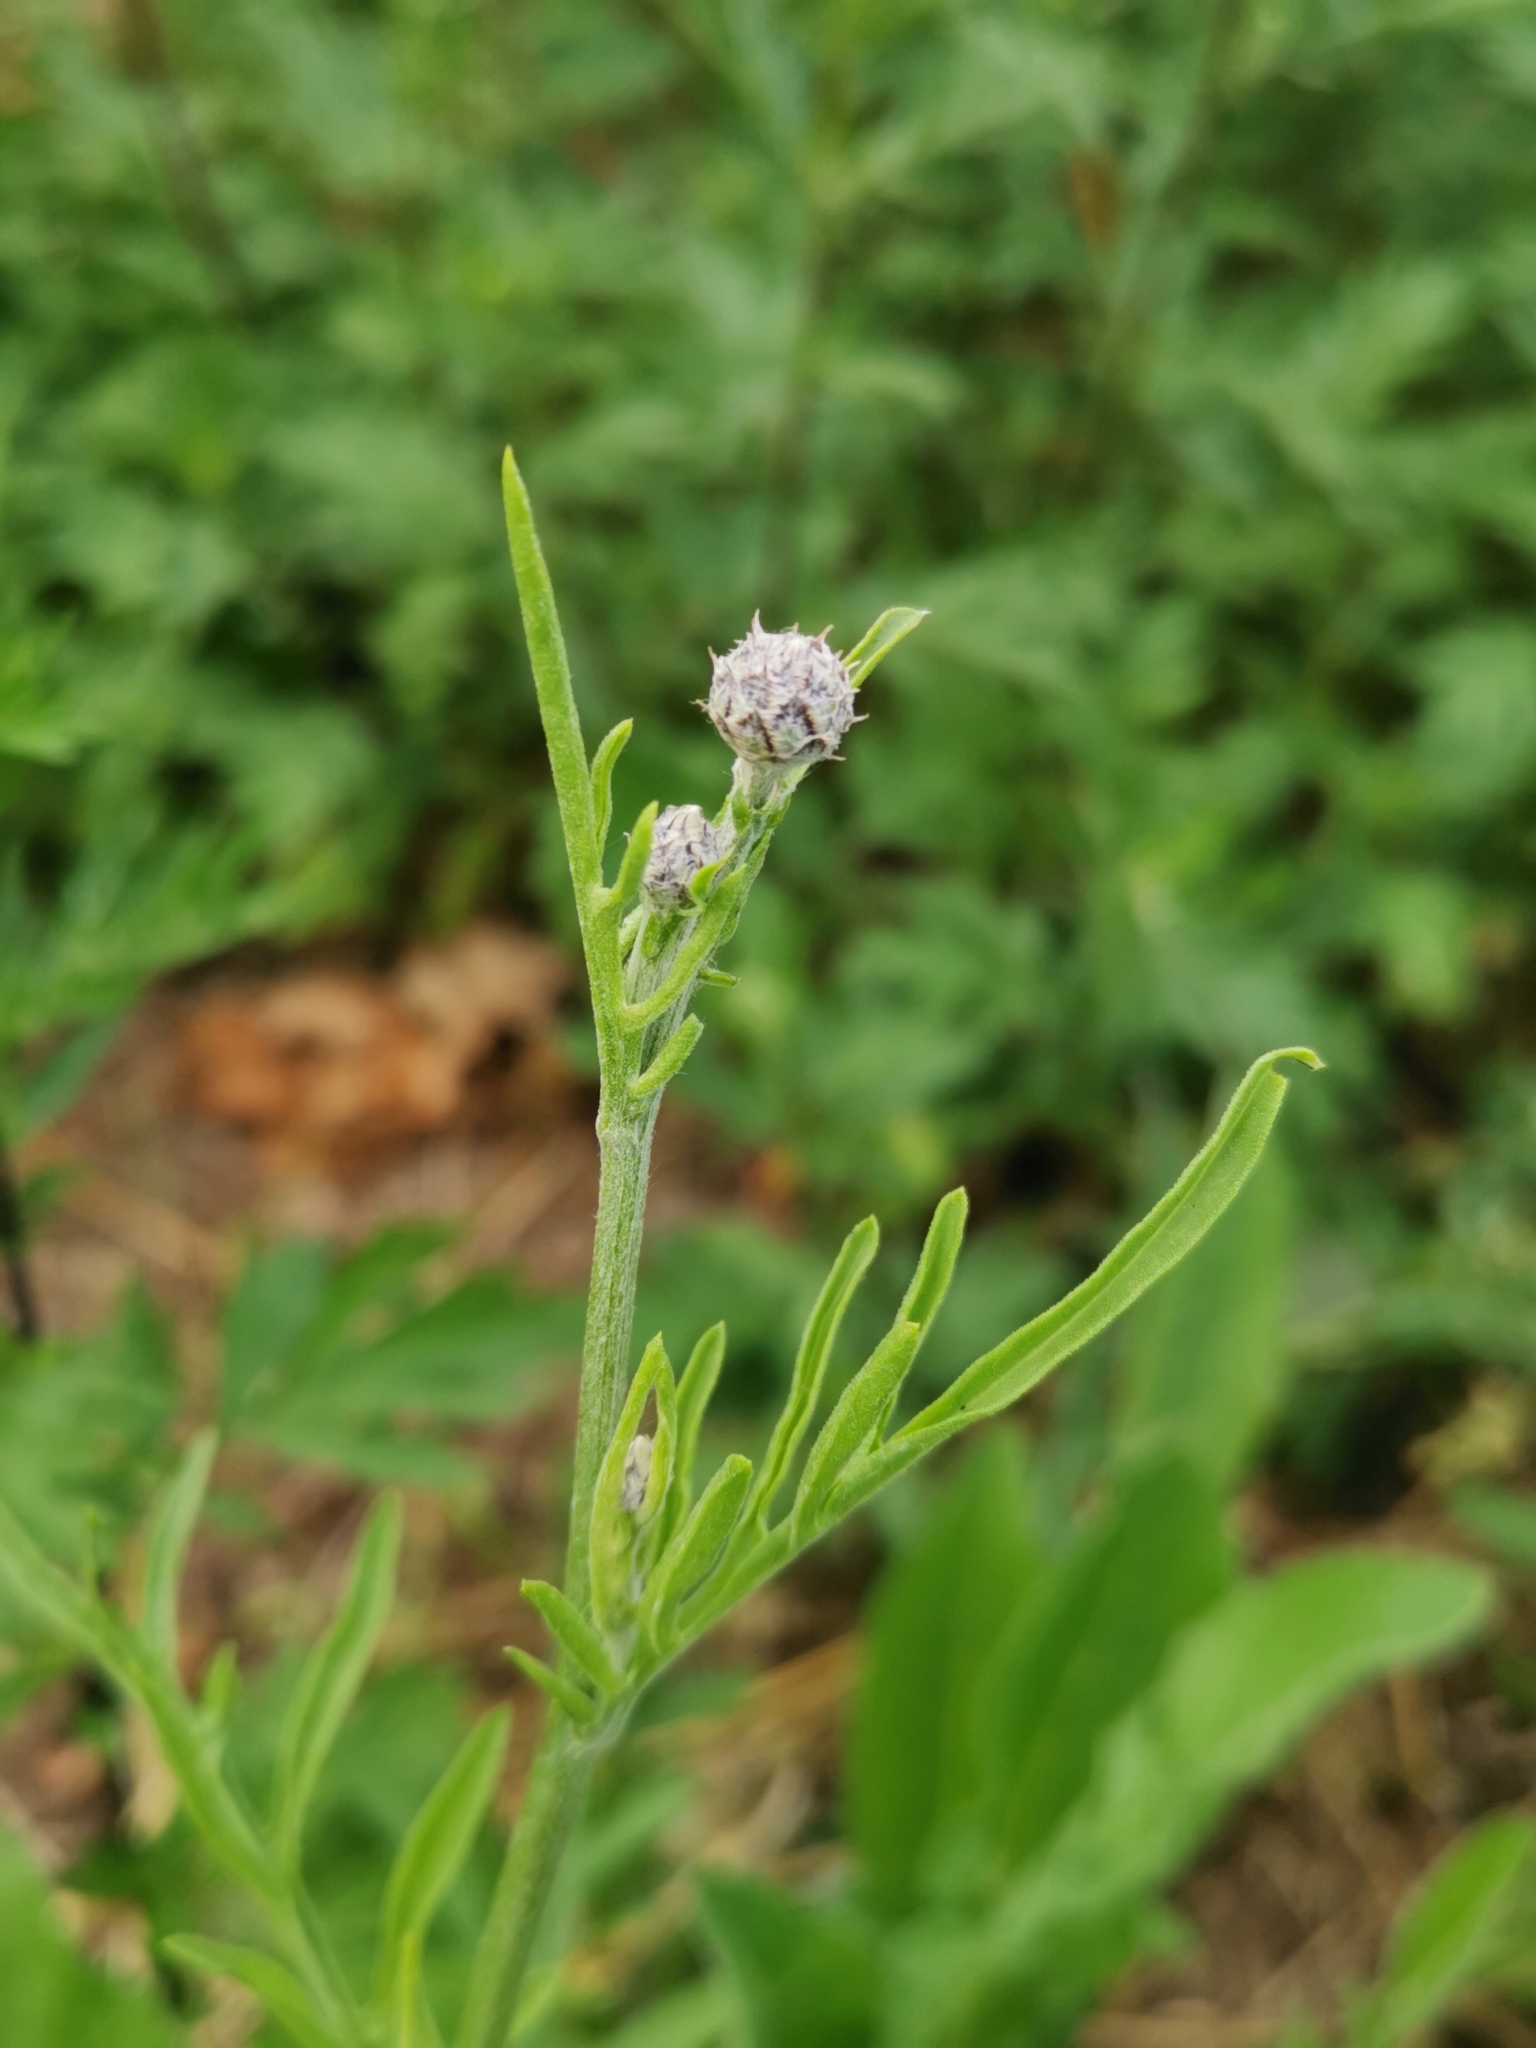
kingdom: Plantae
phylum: Tracheophyta
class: Magnoliopsida
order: Asterales
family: Asteraceae
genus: Centaurea
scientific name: Centaurea scabiosa
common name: Greater knapweed
